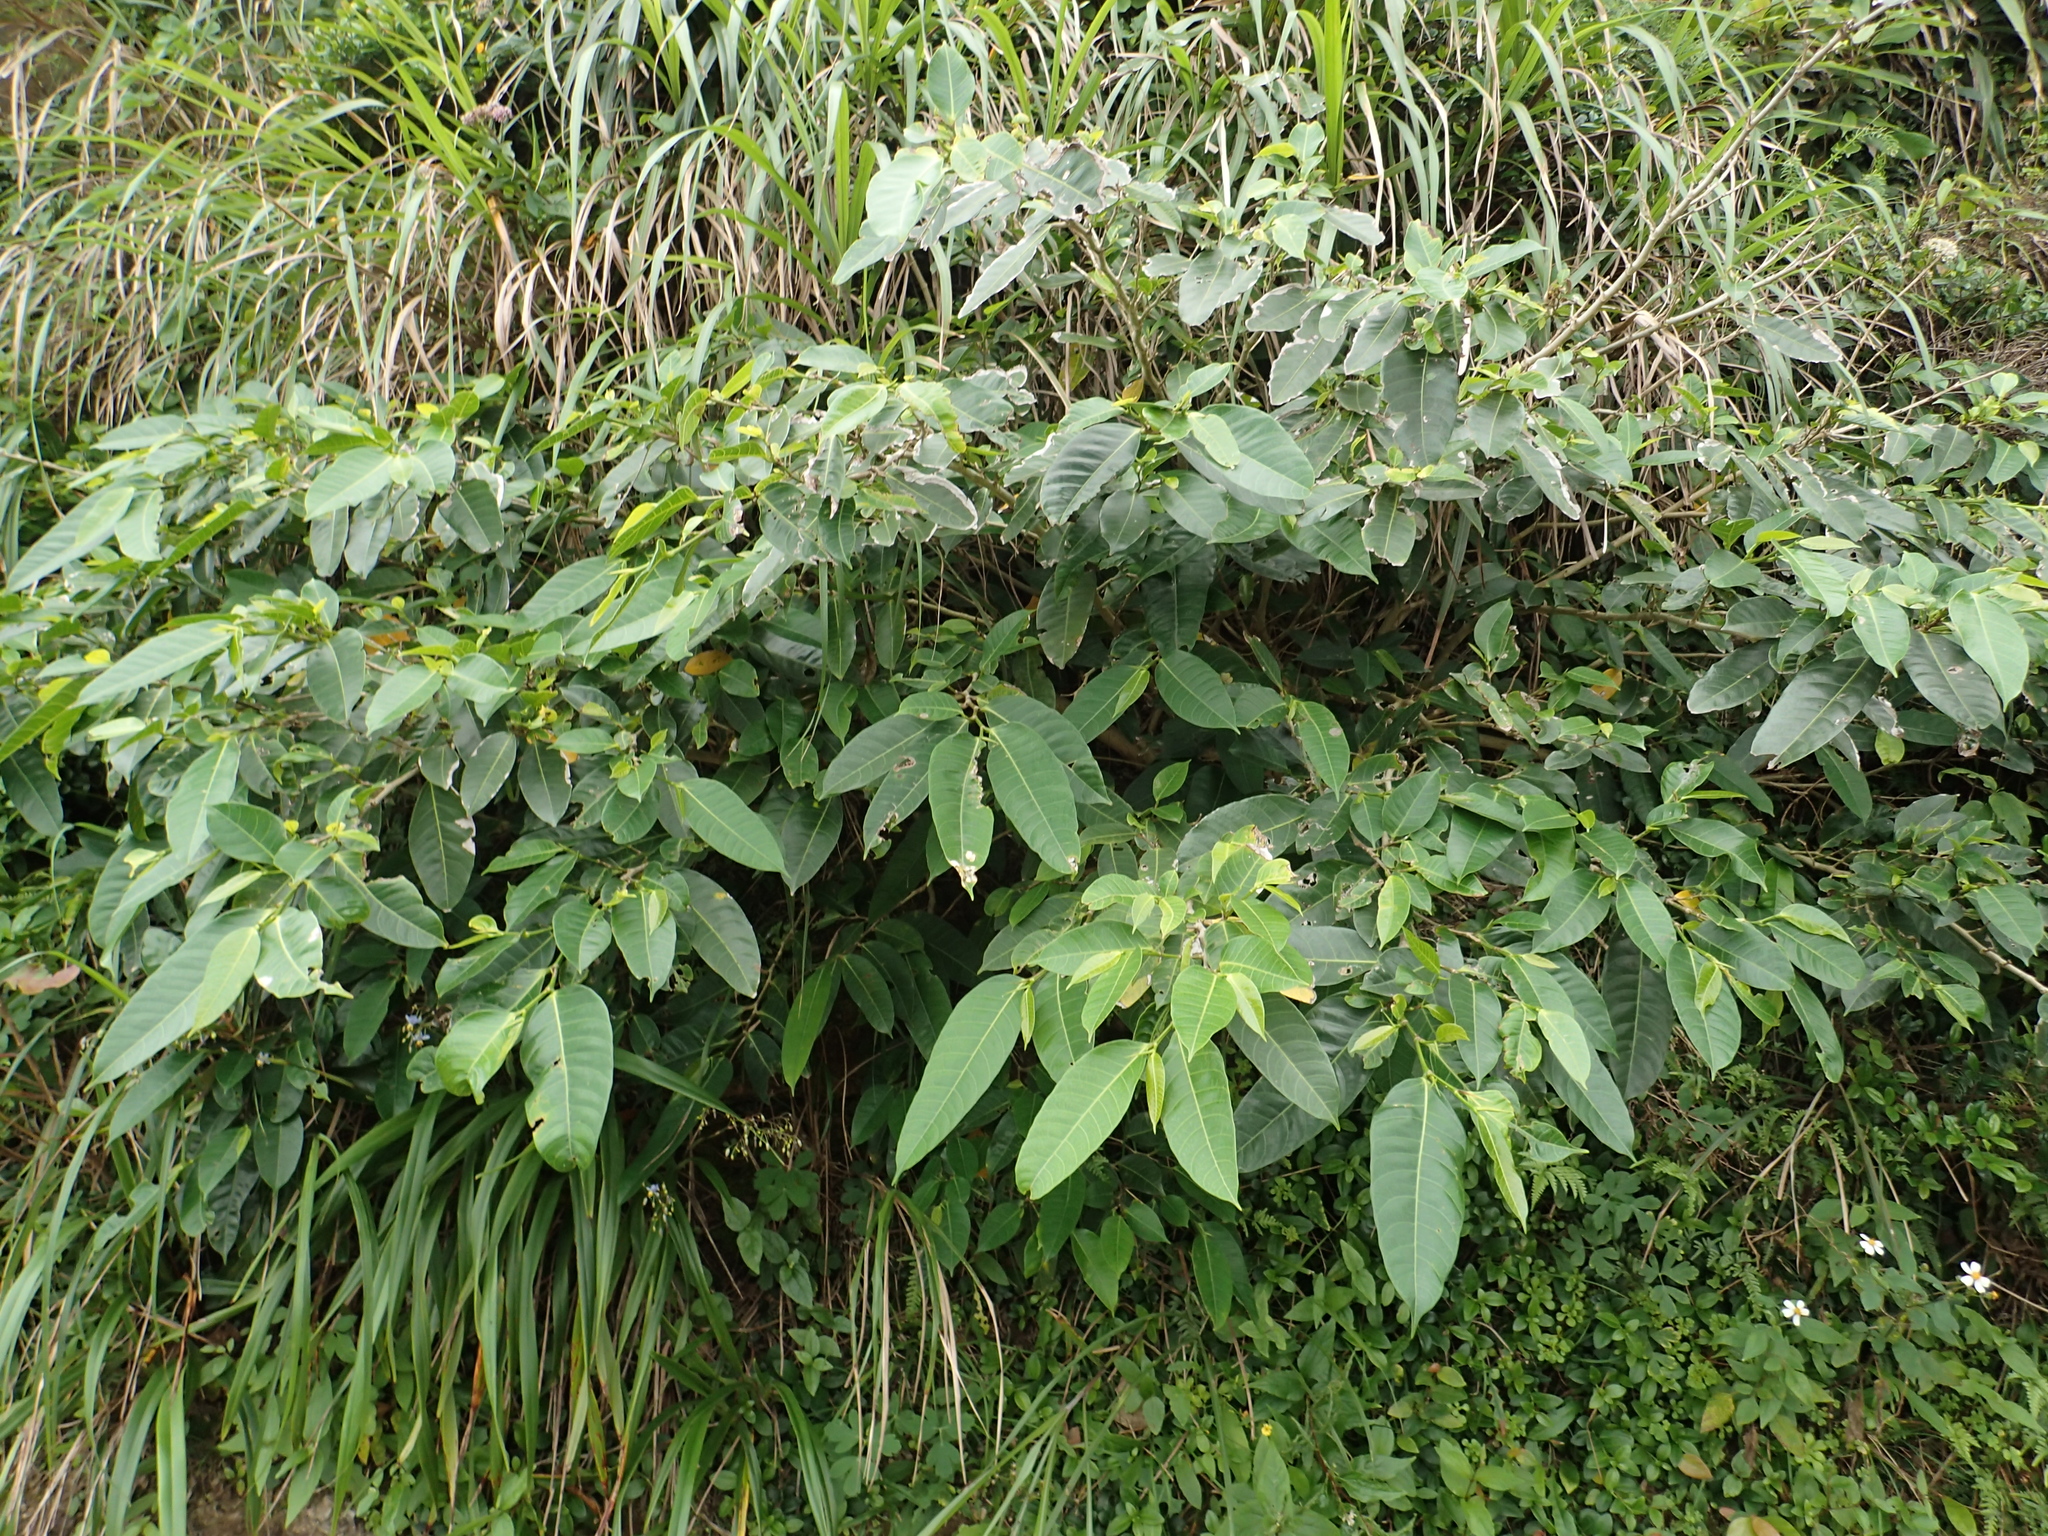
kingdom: Plantae
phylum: Tracheophyta
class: Magnoliopsida
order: Rosales
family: Moraceae
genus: Ficus
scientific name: Ficus virgata
